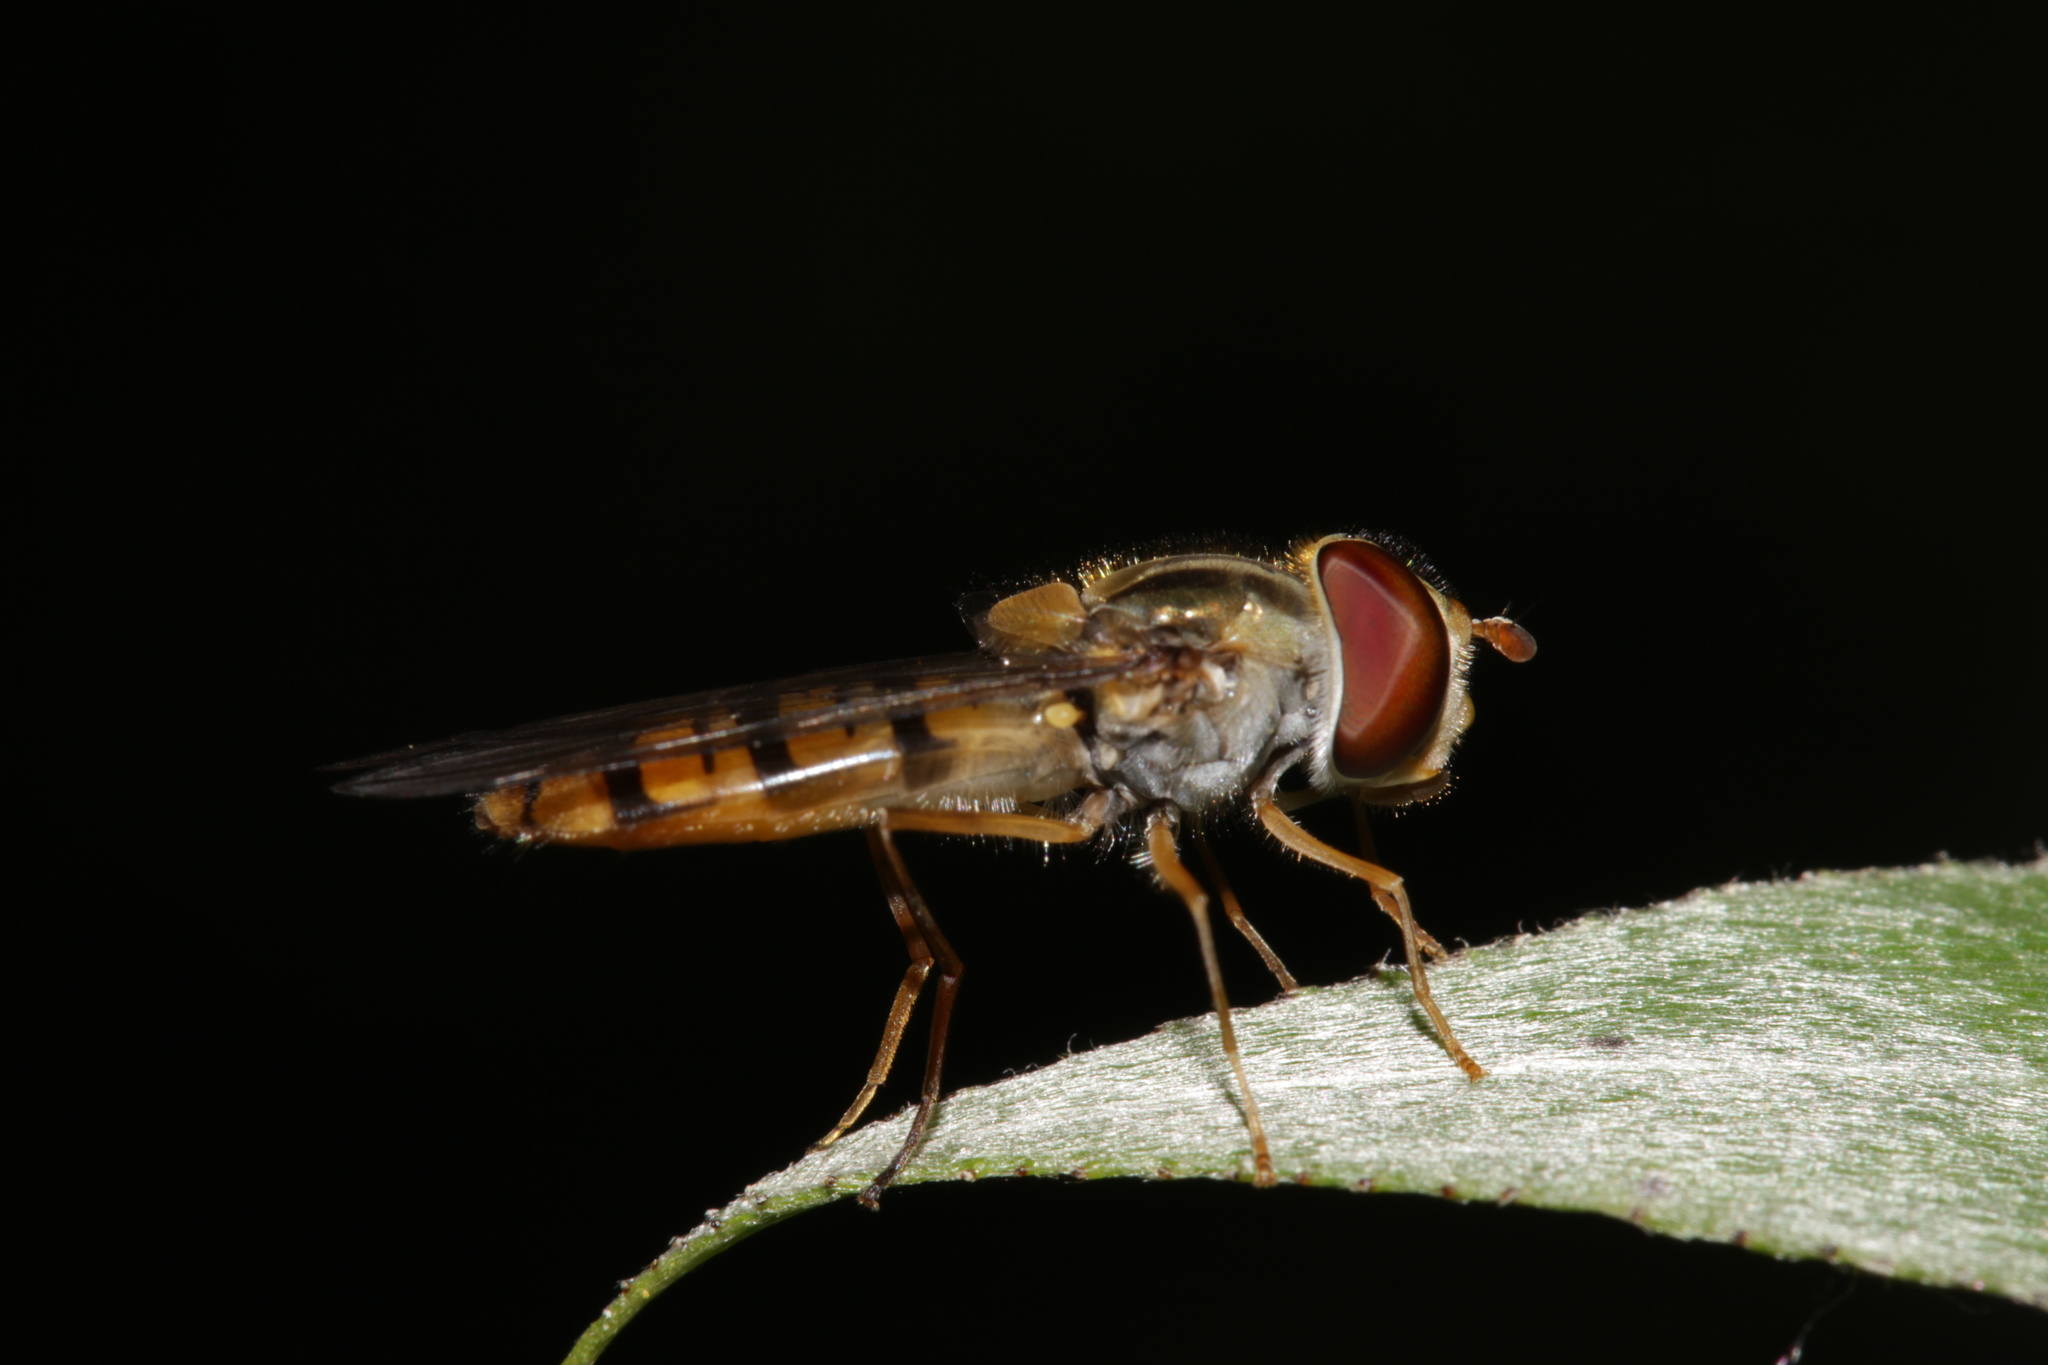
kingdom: Animalia
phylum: Arthropoda
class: Insecta
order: Diptera
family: Syrphidae
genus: Episyrphus
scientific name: Episyrphus balteatus
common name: Marmalade hoverfly
